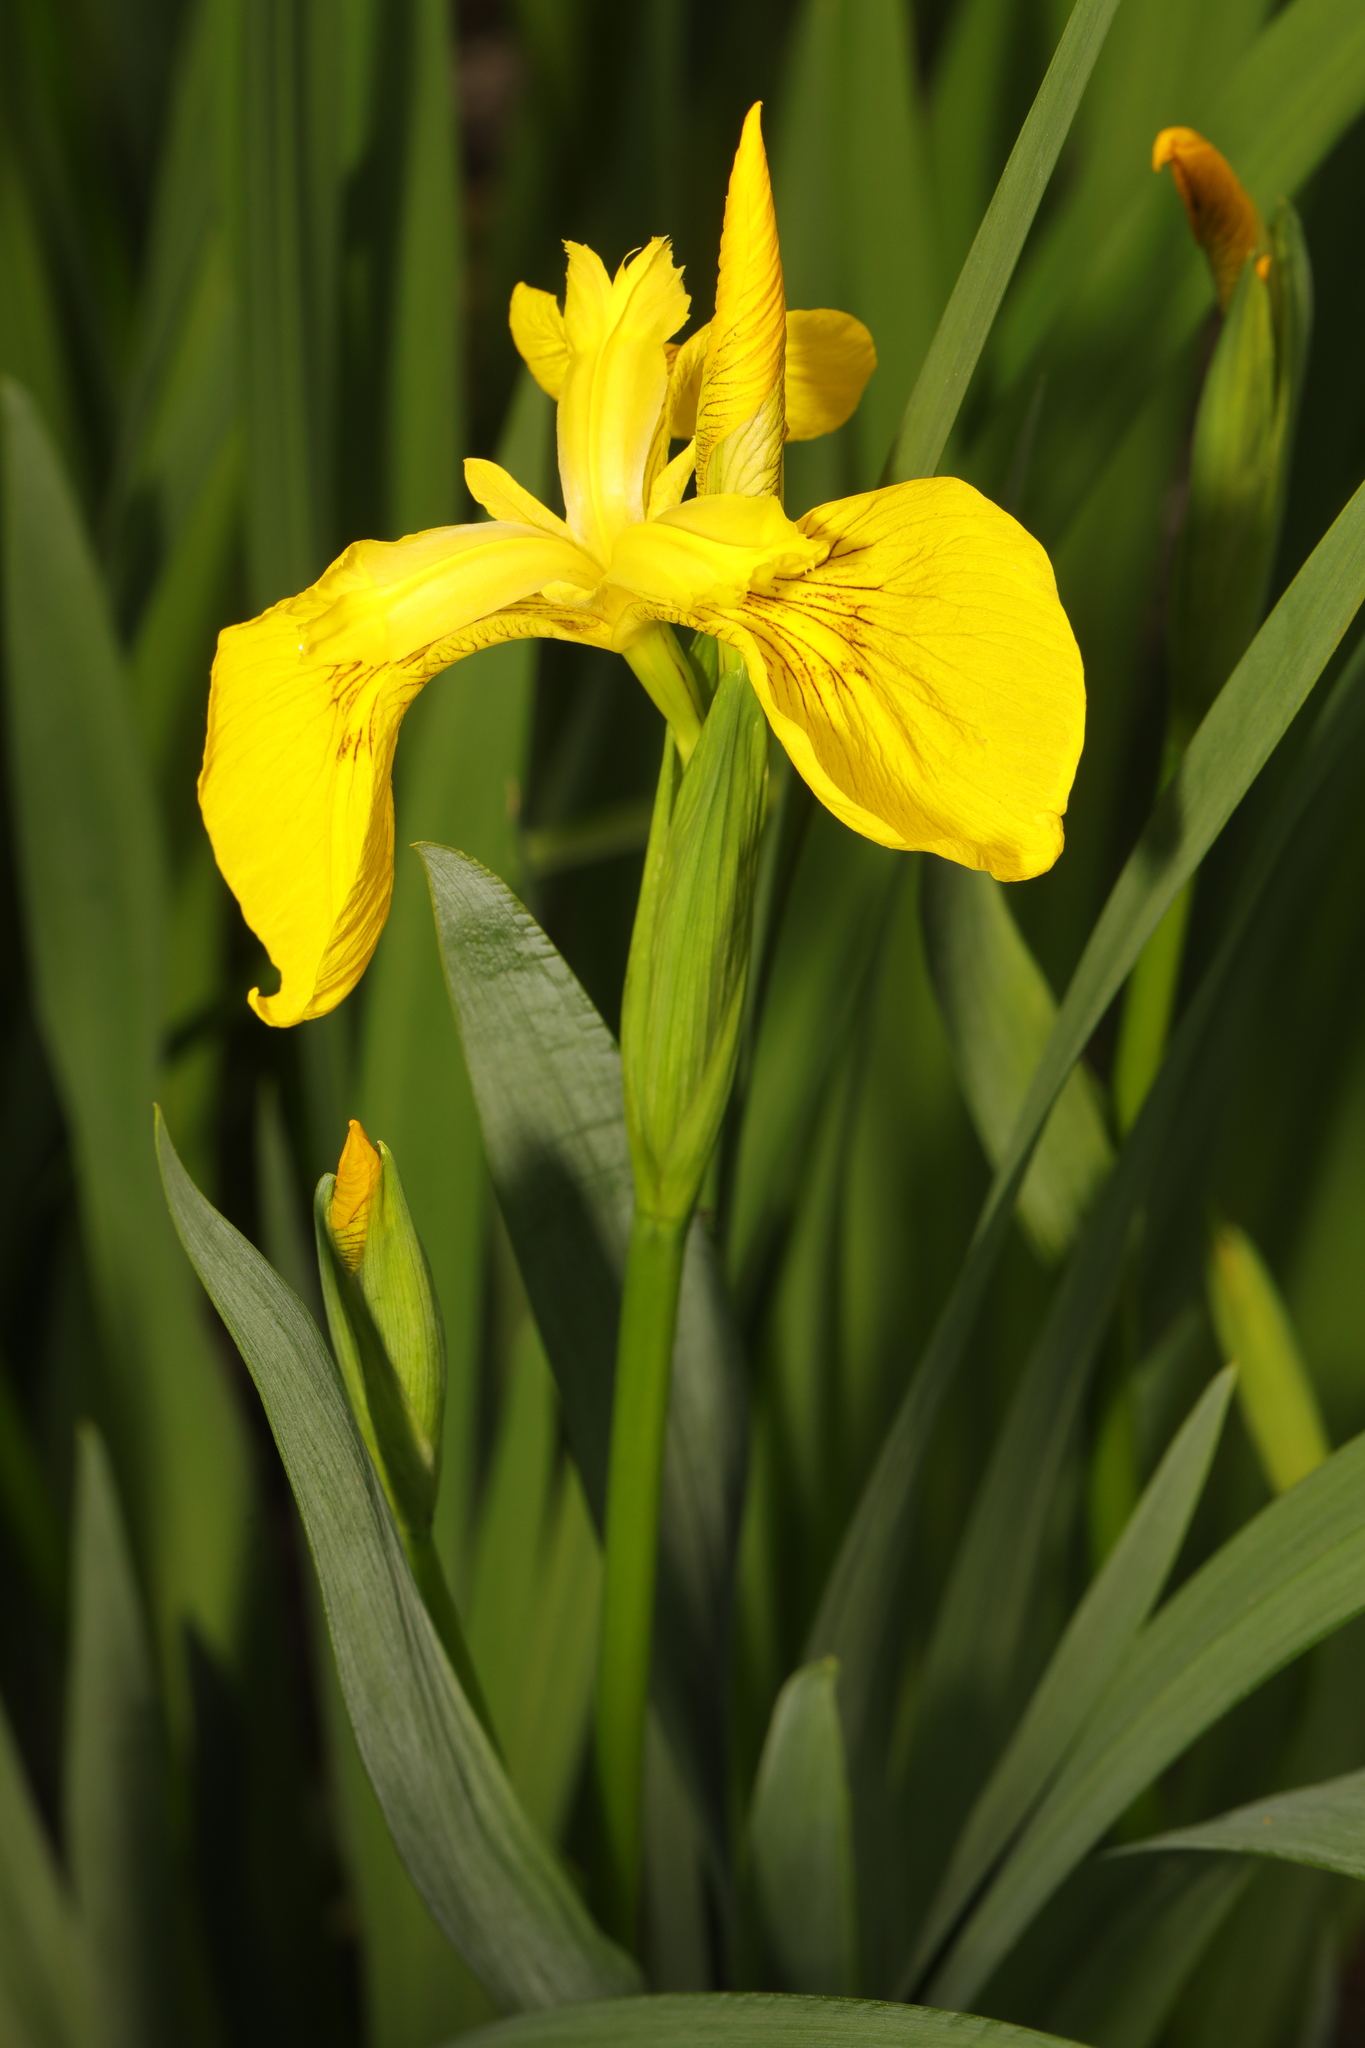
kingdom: Plantae
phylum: Tracheophyta
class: Liliopsida
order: Asparagales
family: Iridaceae
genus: Iris
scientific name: Iris pseudacorus
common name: Yellow flag
